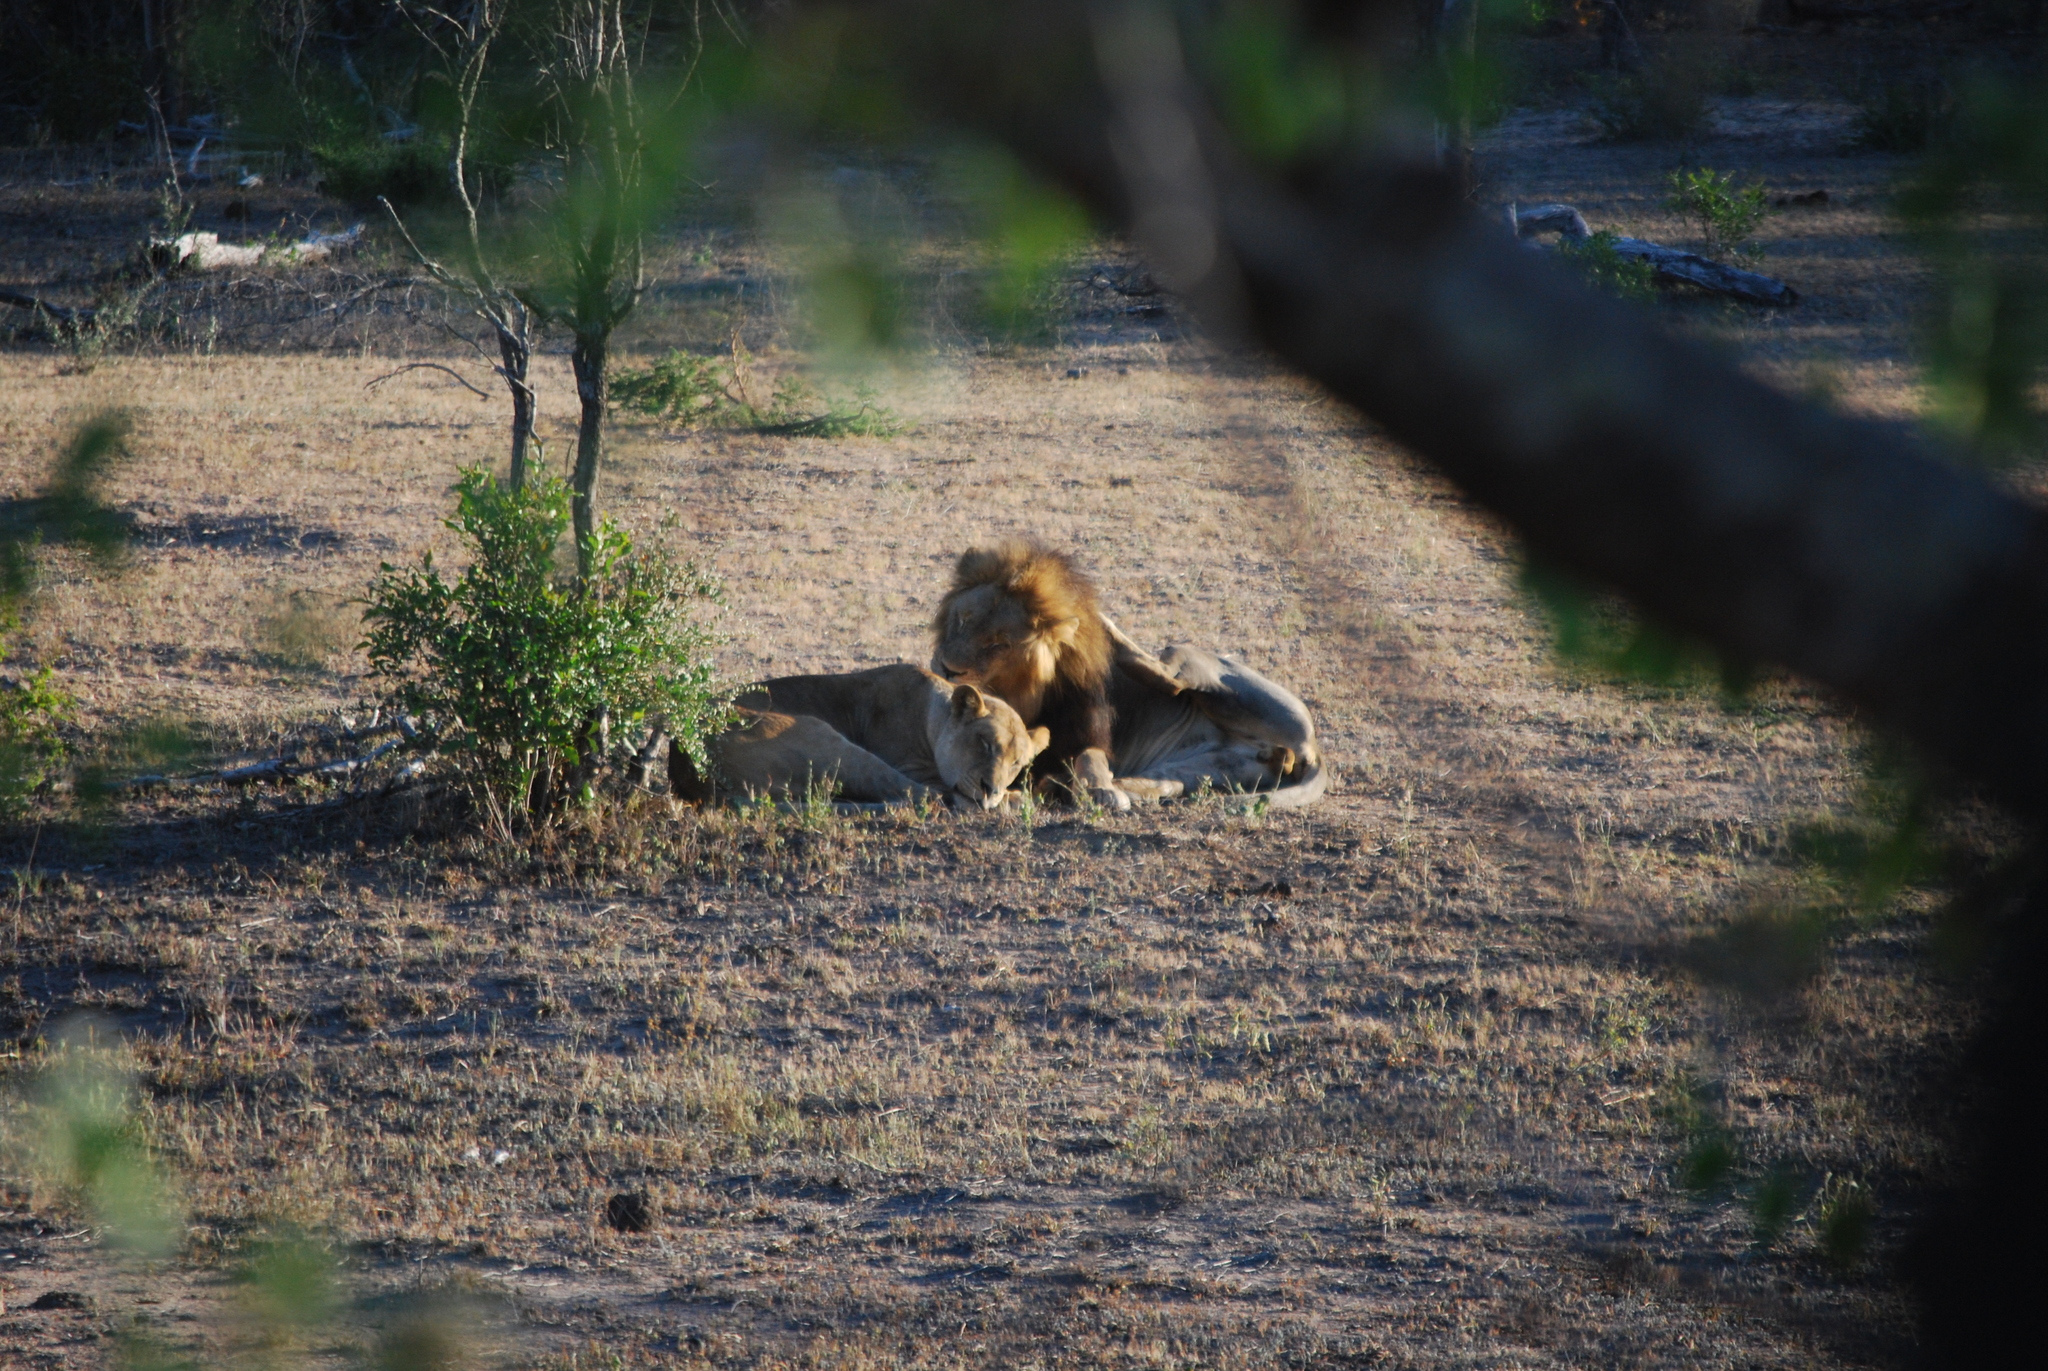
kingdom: Animalia
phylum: Chordata
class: Mammalia
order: Carnivora
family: Felidae
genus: Panthera
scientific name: Panthera leo
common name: Lion
